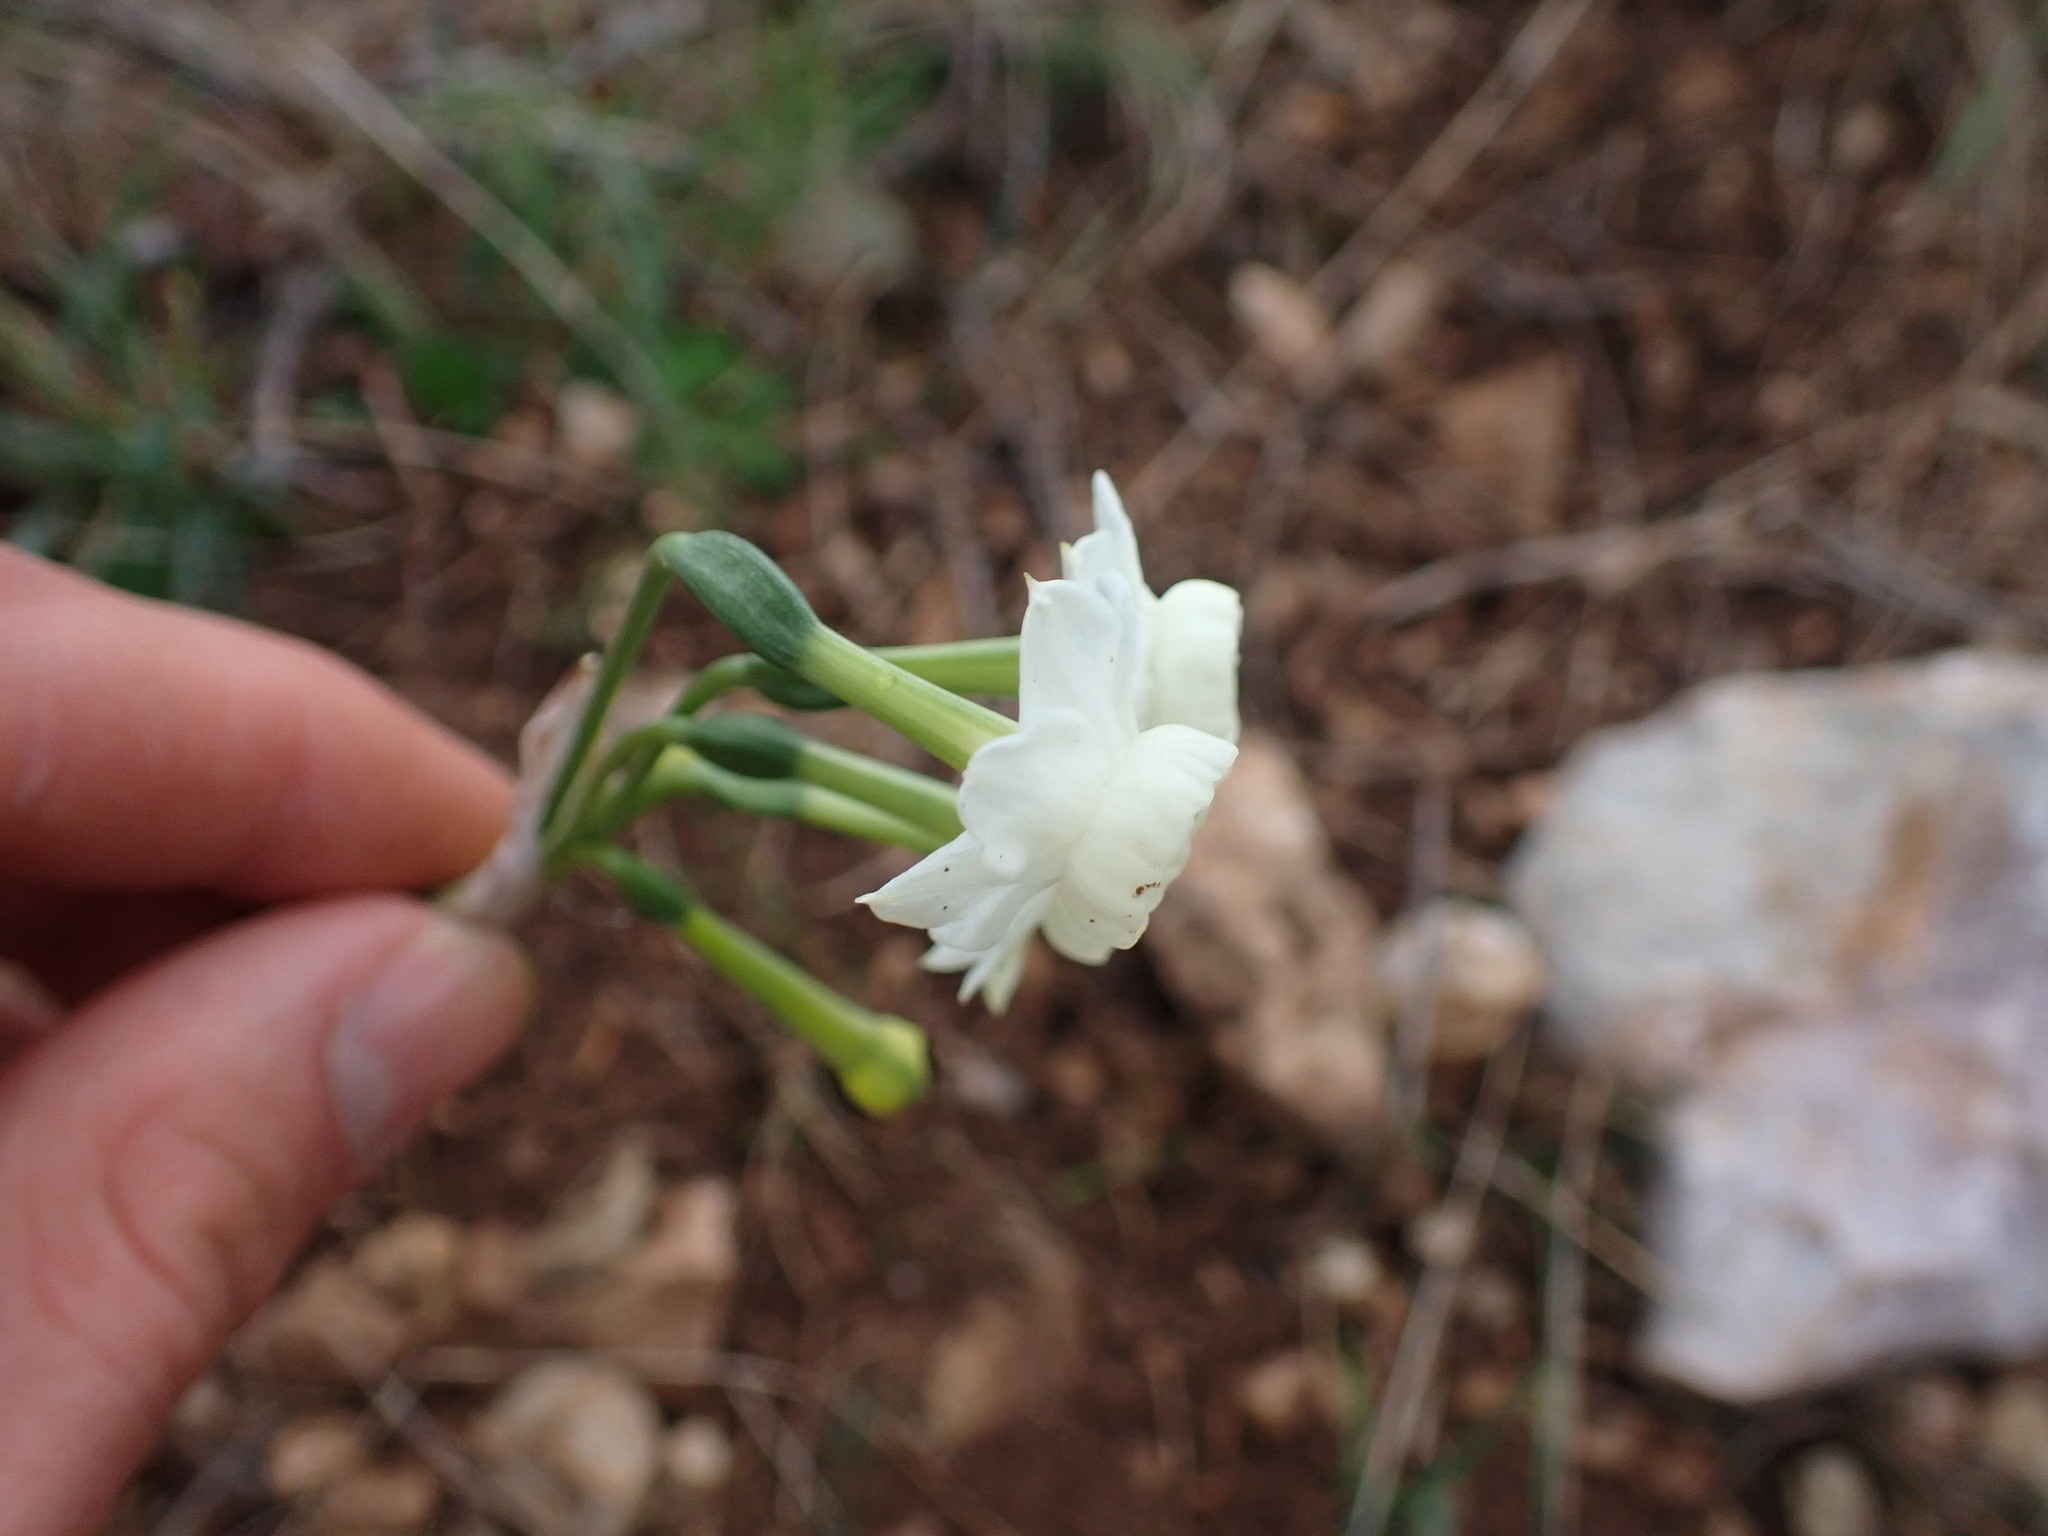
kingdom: Plantae
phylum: Tracheophyta
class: Liliopsida
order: Asparagales
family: Amaryllidaceae
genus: Narcissus
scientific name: Narcissus dubius
